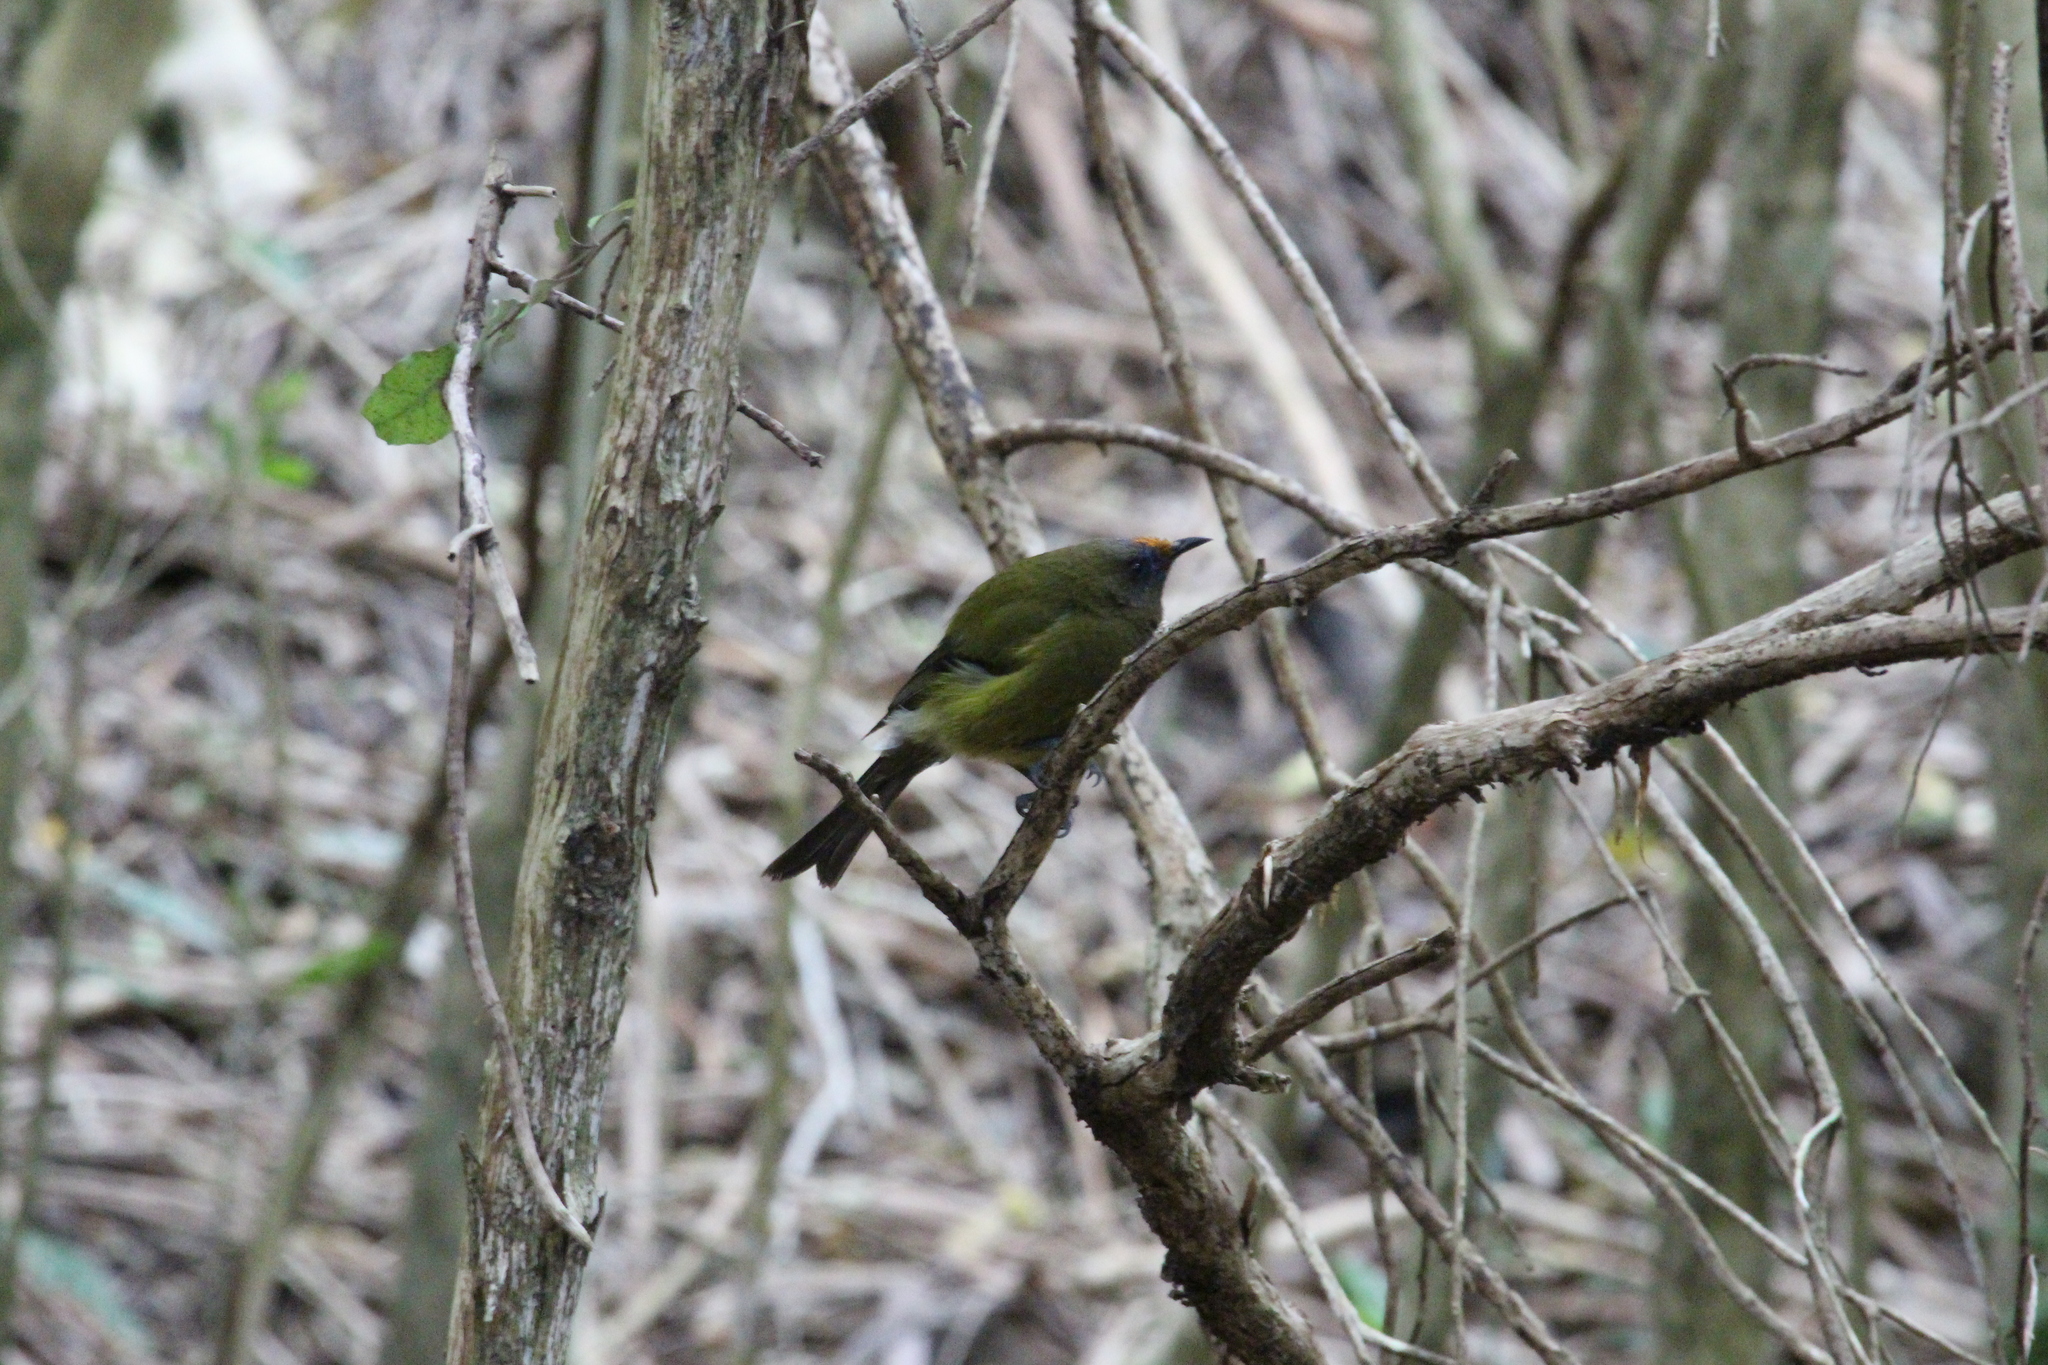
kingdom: Animalia
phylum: Chordata
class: Aves
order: Passeriformes
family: Meliphagidae
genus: Anthornis
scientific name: Anthornis melanura
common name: New zealand bellbird
